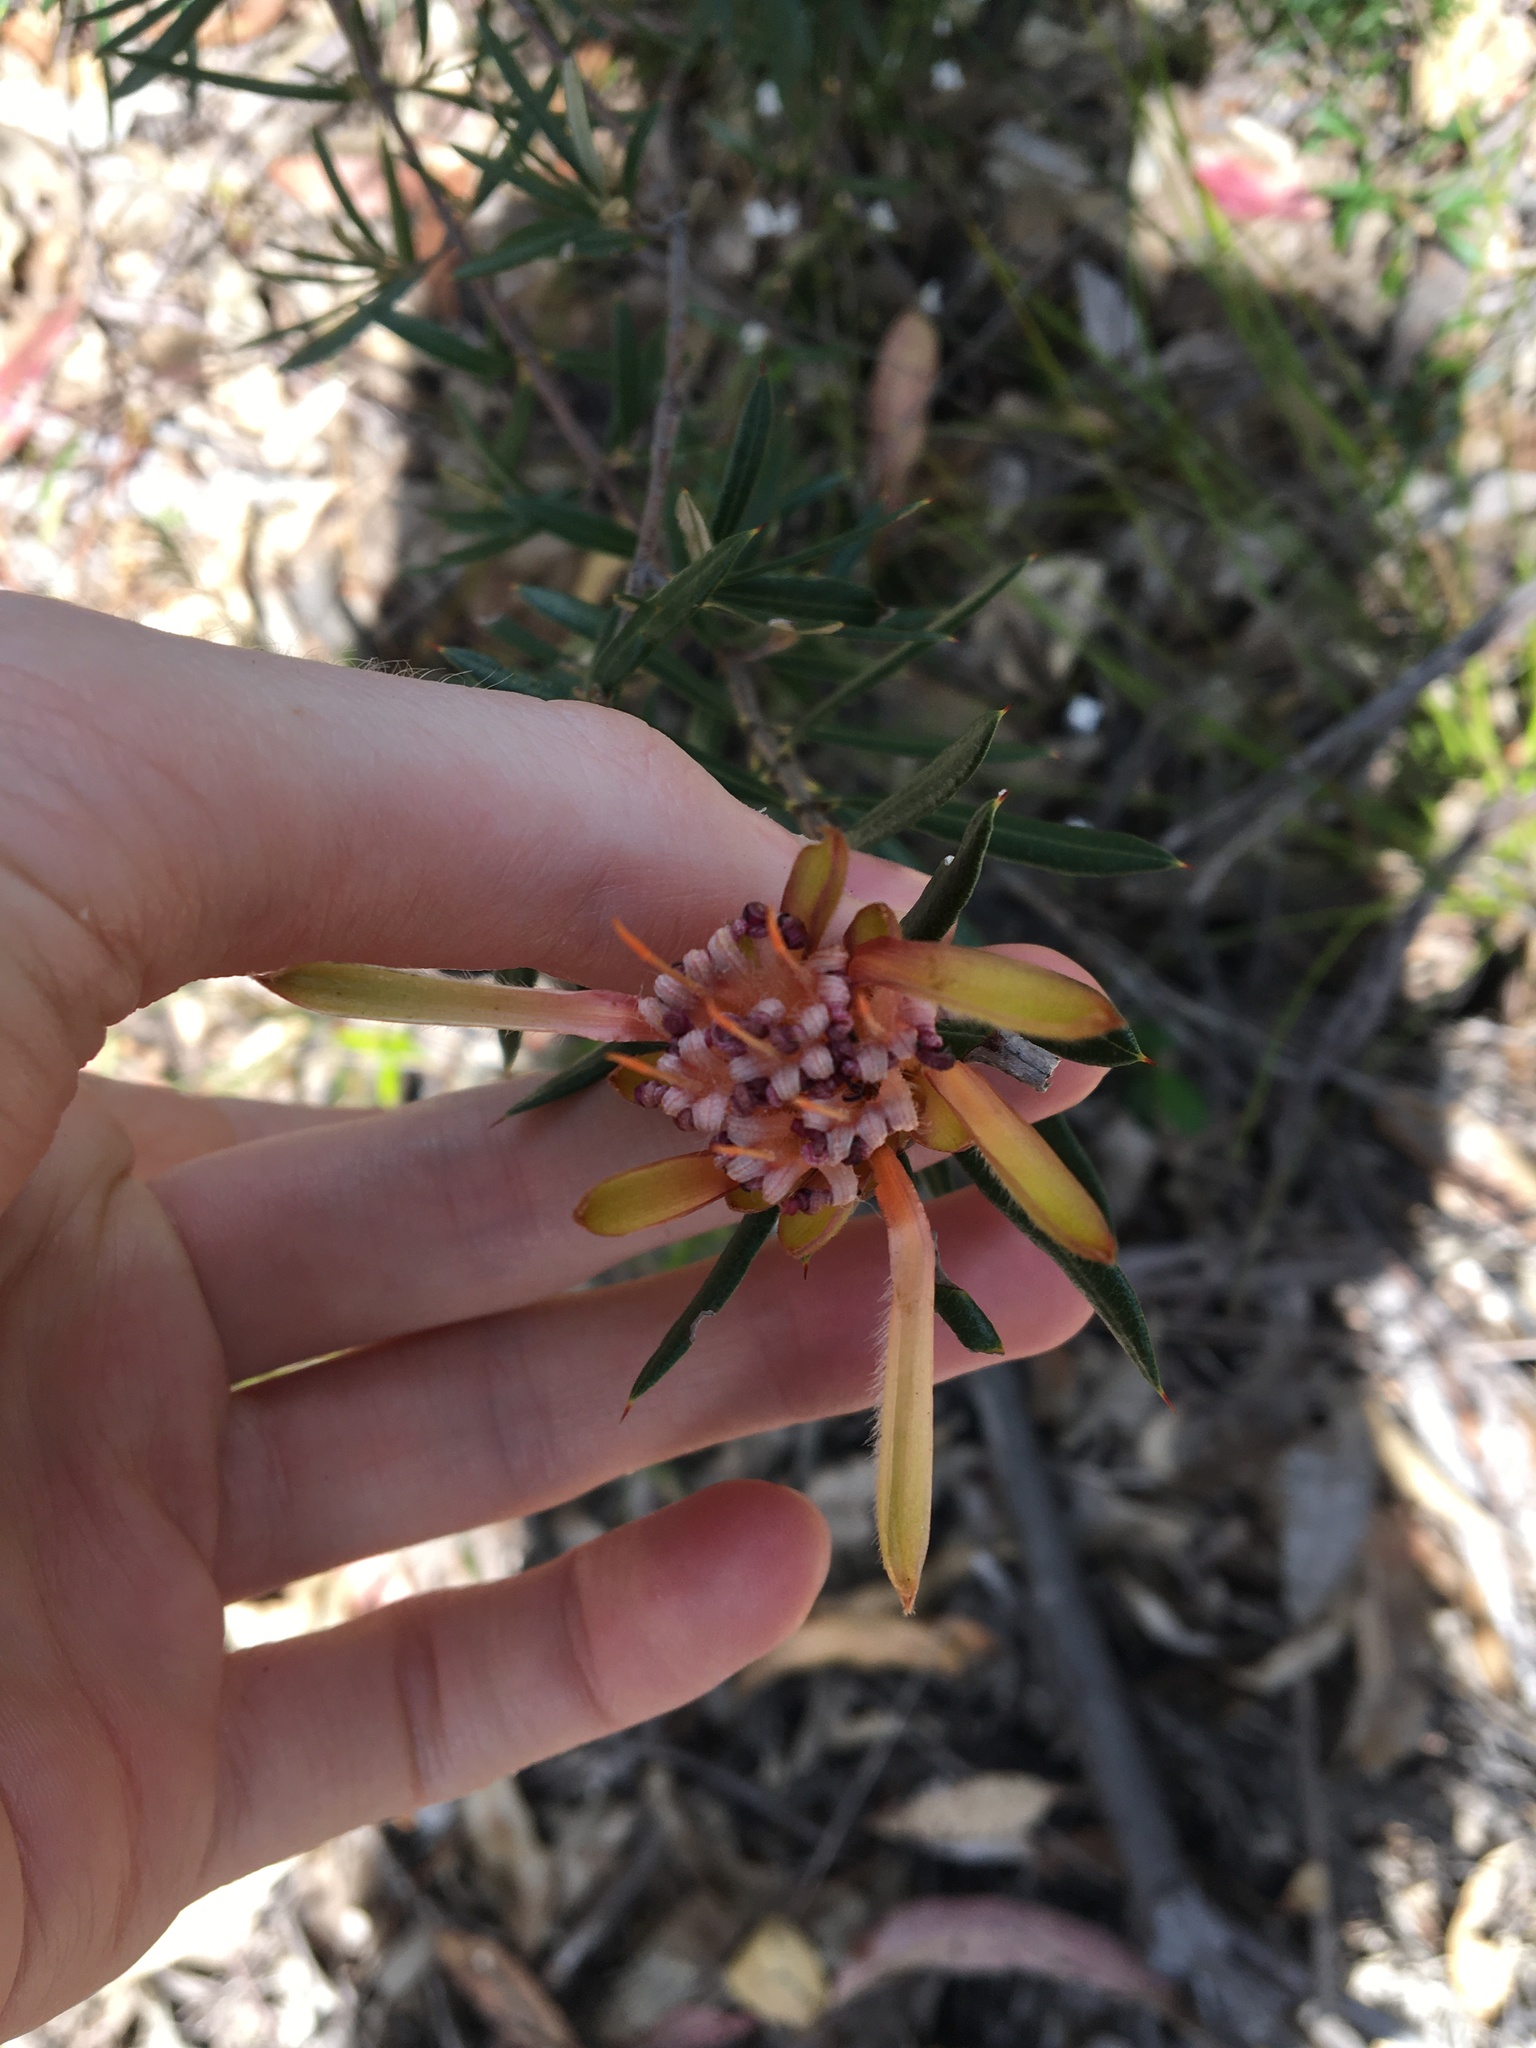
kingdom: Plantae
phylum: Tracheophyta
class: Magnoliopsida
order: Proteales
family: Proteaceae
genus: Lambertia
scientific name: Lambertia formosa
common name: Mountain-devil
